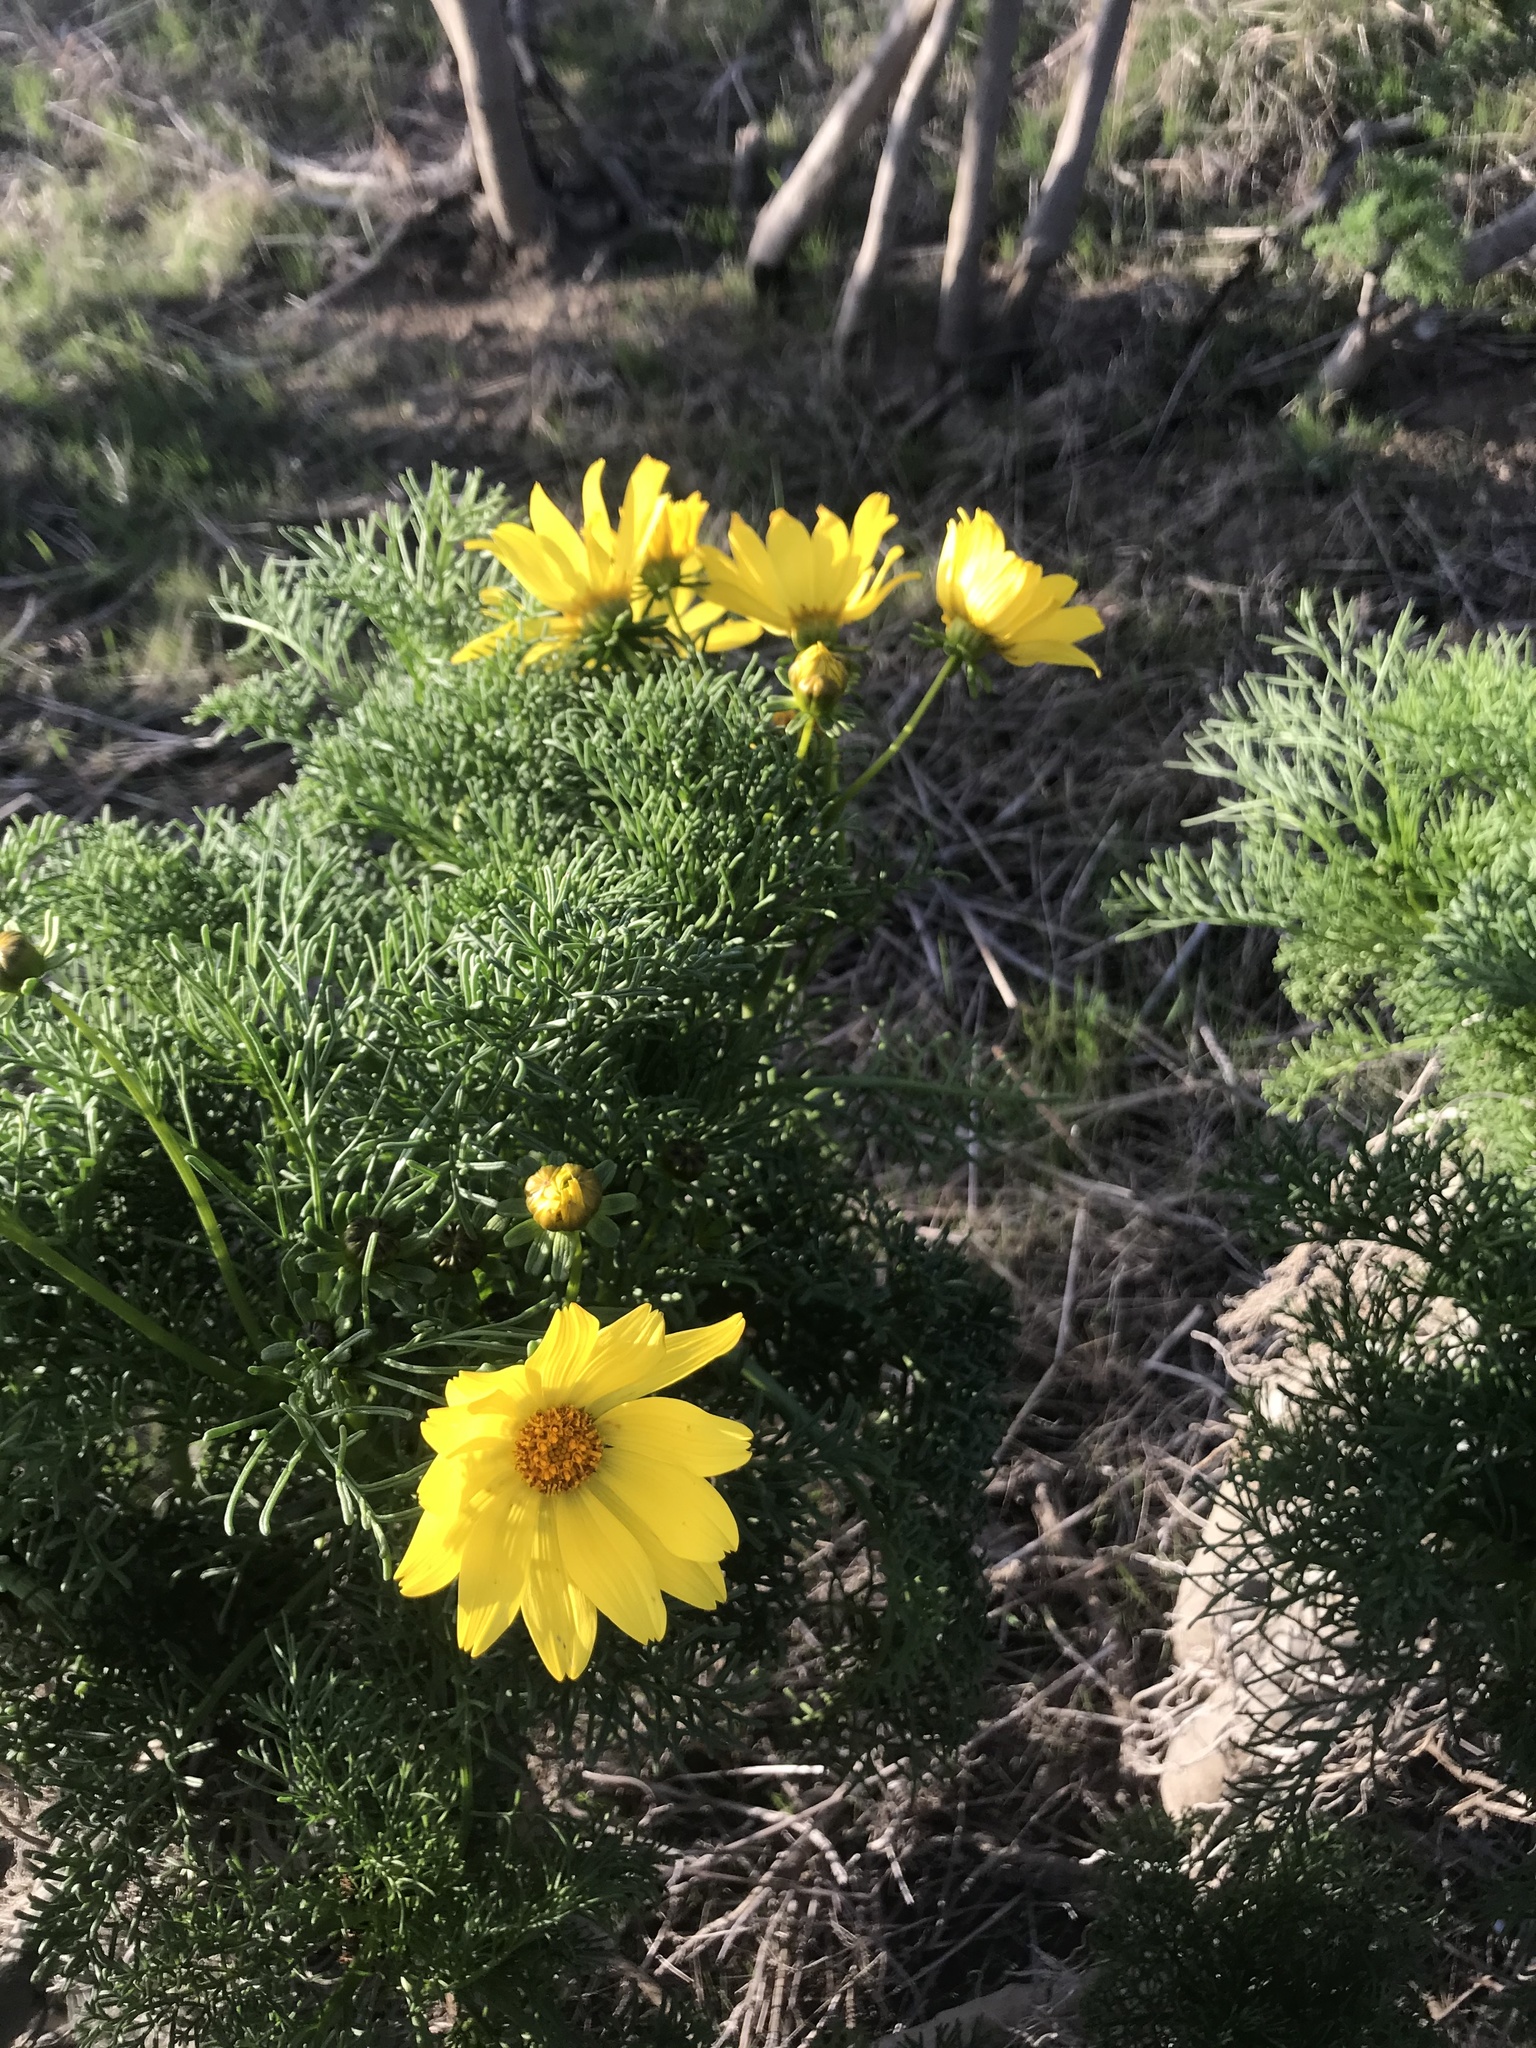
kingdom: Plantae
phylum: Tracheophyta
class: Magnoliopsida
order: Asterales
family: Asteraceae
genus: Coreopsis
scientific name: Coreopsis gigantea
